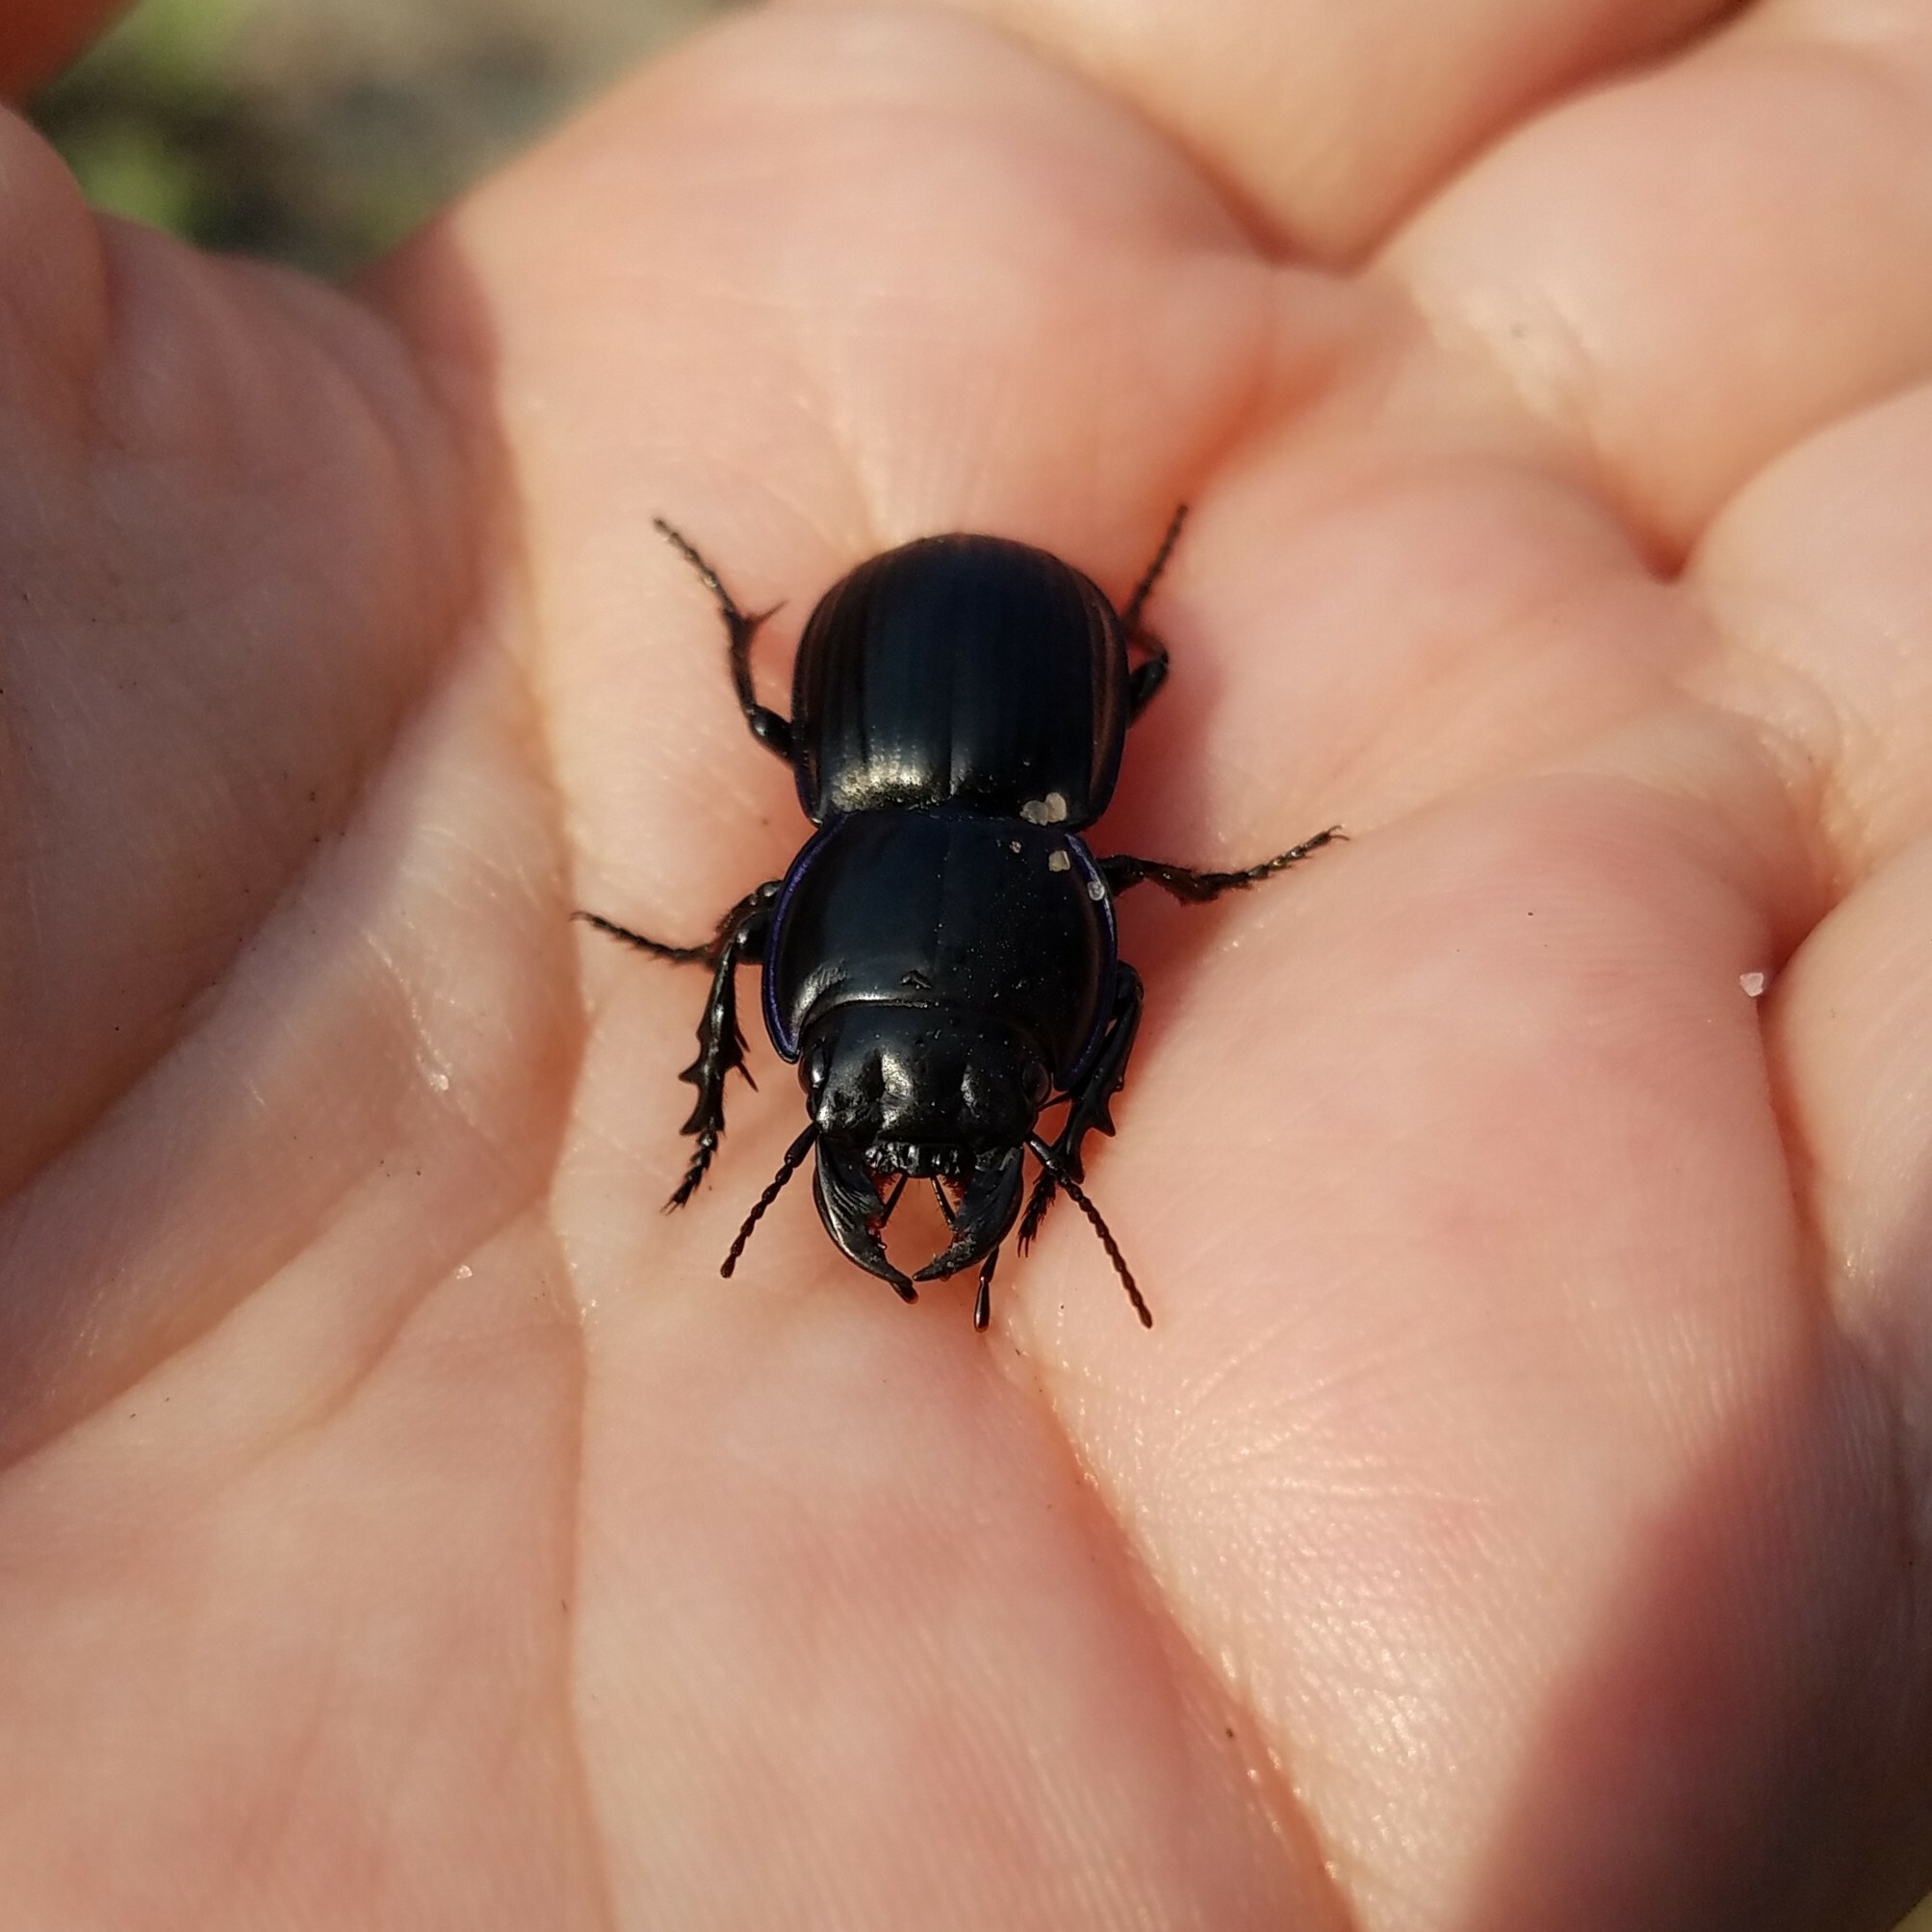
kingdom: Animalia
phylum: Arthropoda
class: Insecta
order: Coleoptera
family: Carabidae
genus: Pasimachus
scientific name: Pasimachus
